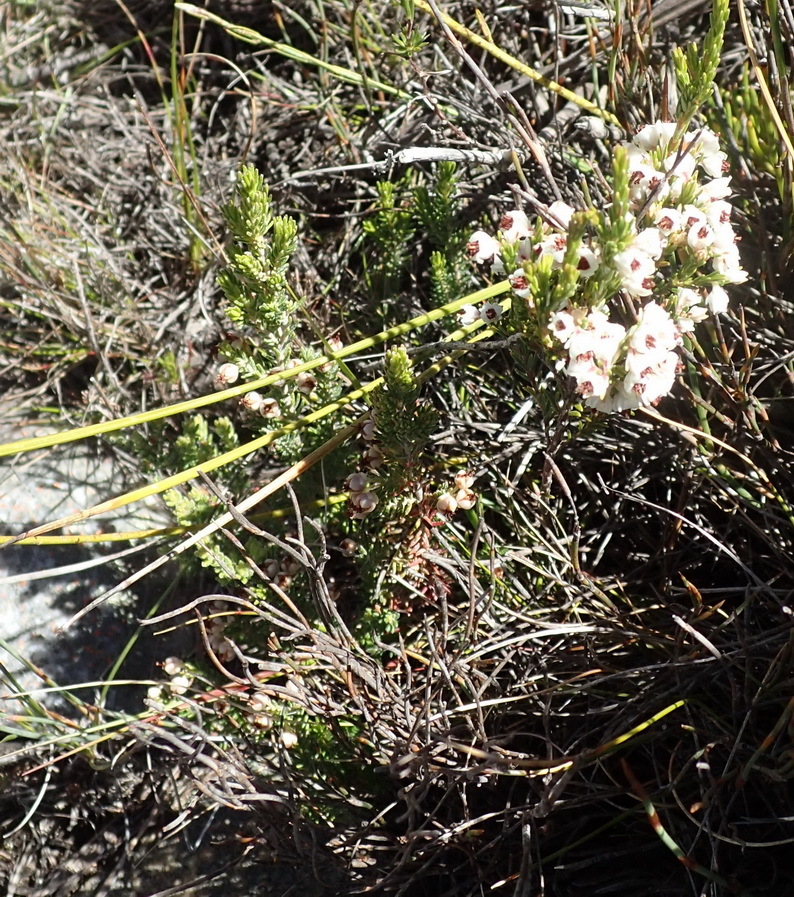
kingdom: Plantae
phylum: Tracheophyta
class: Magnoliopsida
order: Ericales
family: Ericaceae
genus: Erica
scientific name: Erica calycina
